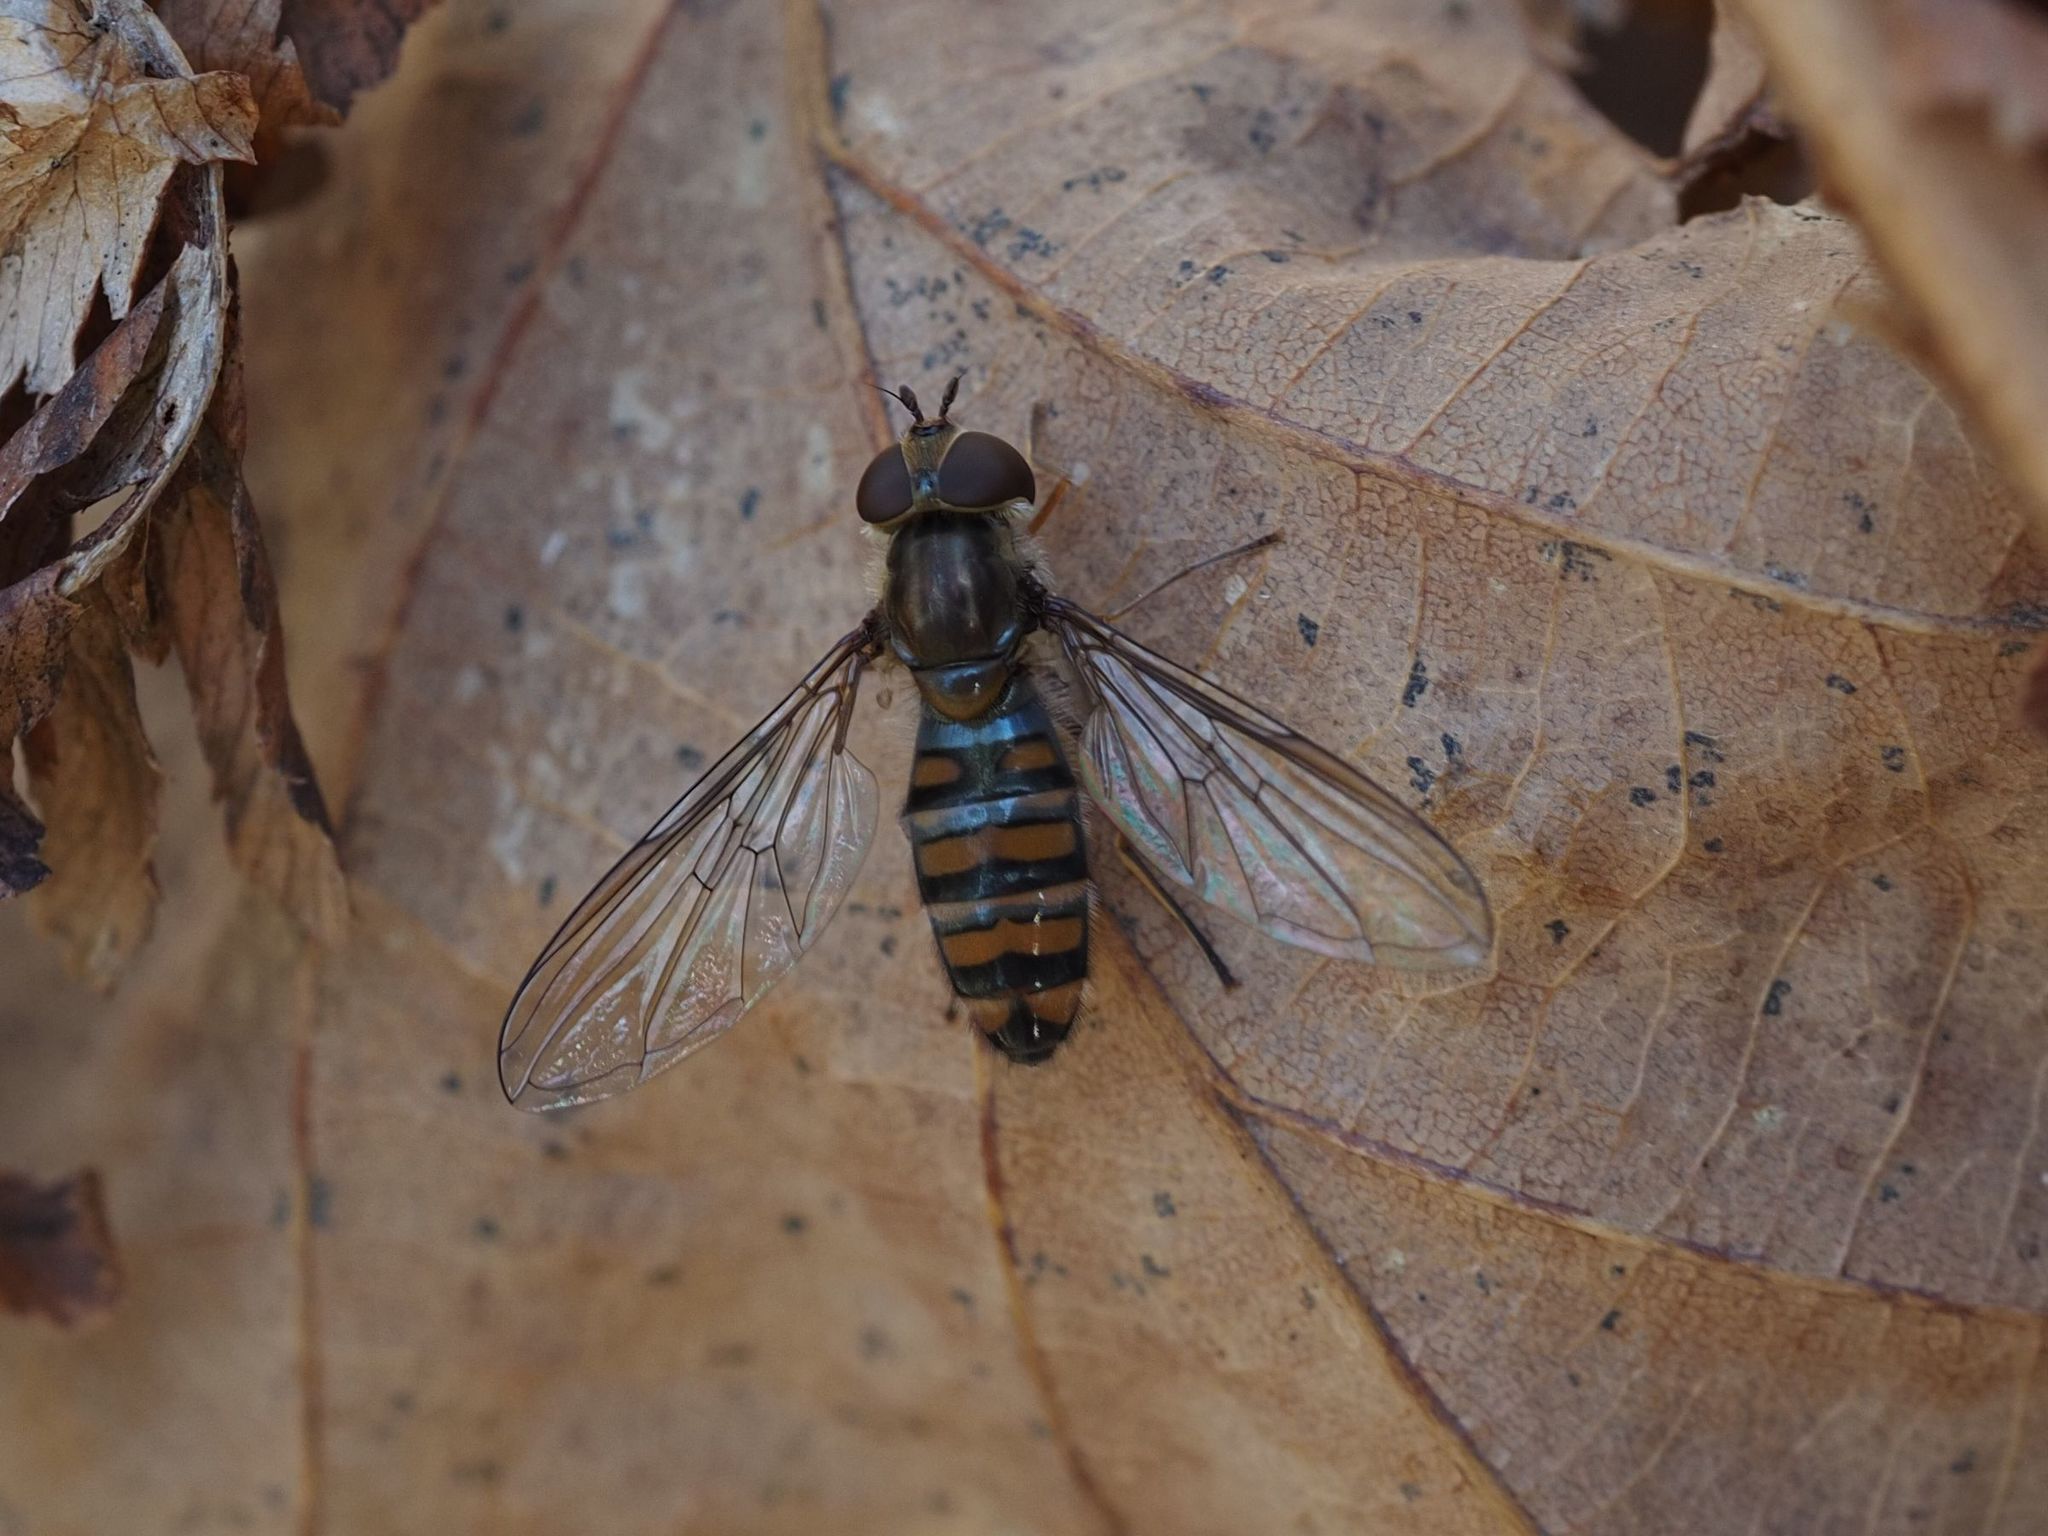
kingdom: Animalia
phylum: Arthropoda
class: Insecta
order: Diptera
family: Syrphidae
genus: Episyrphus
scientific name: Episyrphus balteatus
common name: Marmalade hoverfly
